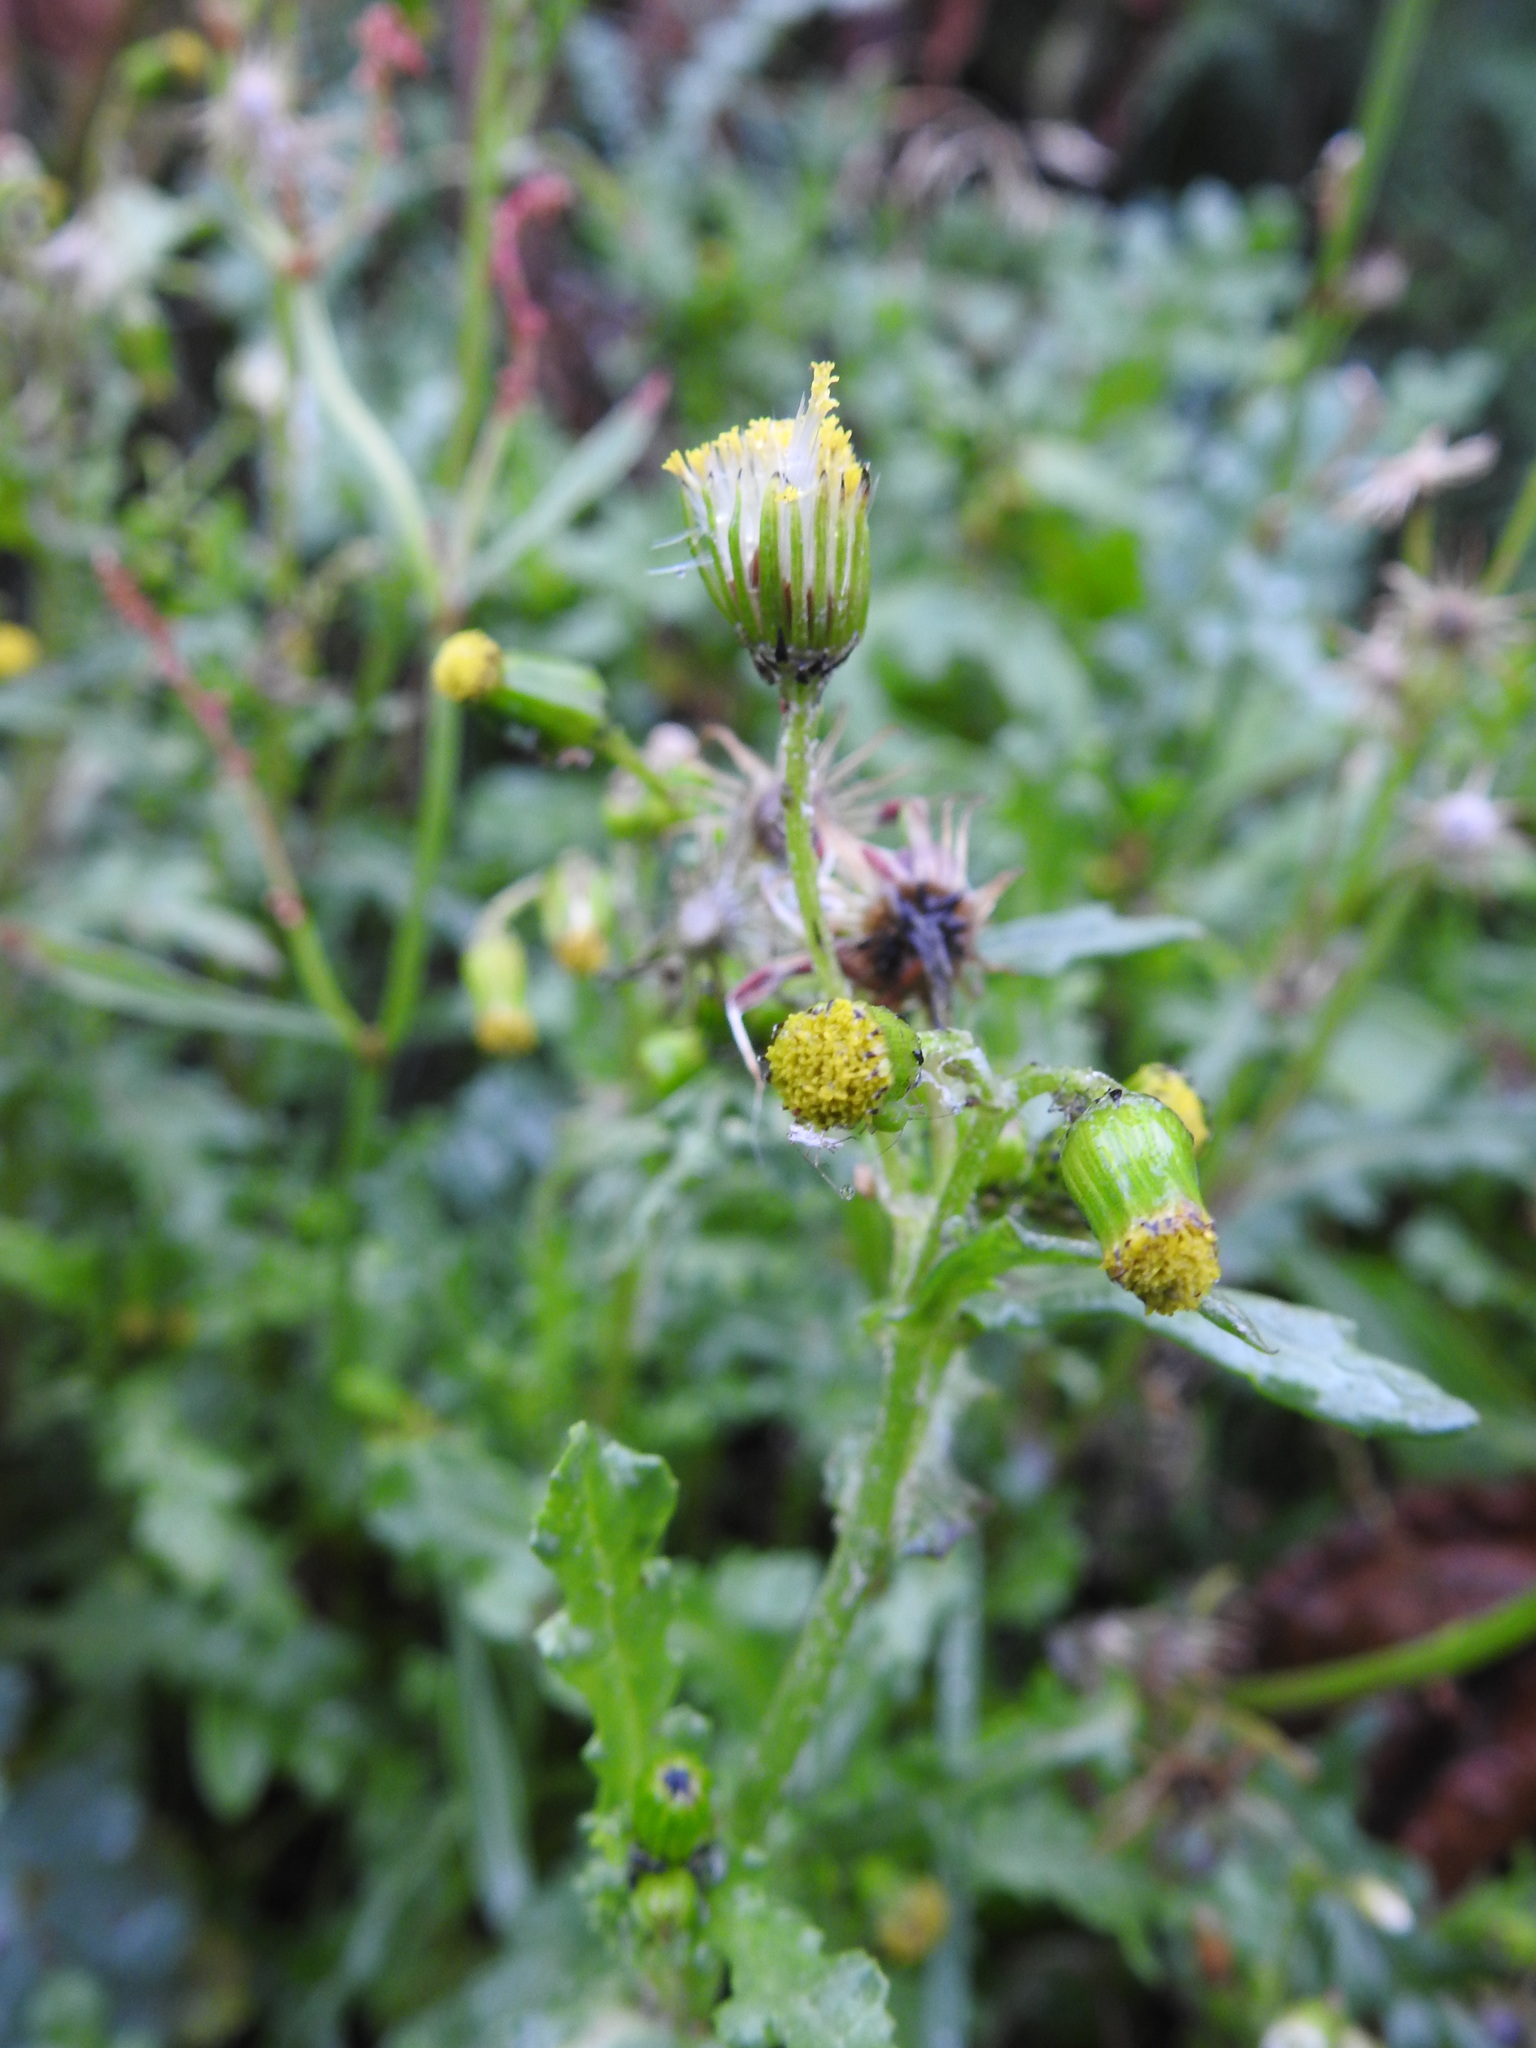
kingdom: Plantae
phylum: Tracheophyta
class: Magnoliopsida
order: Asterales
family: Asteraceae
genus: Senecio
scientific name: Senecio vulgaris
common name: Old-man-in-the-spring
